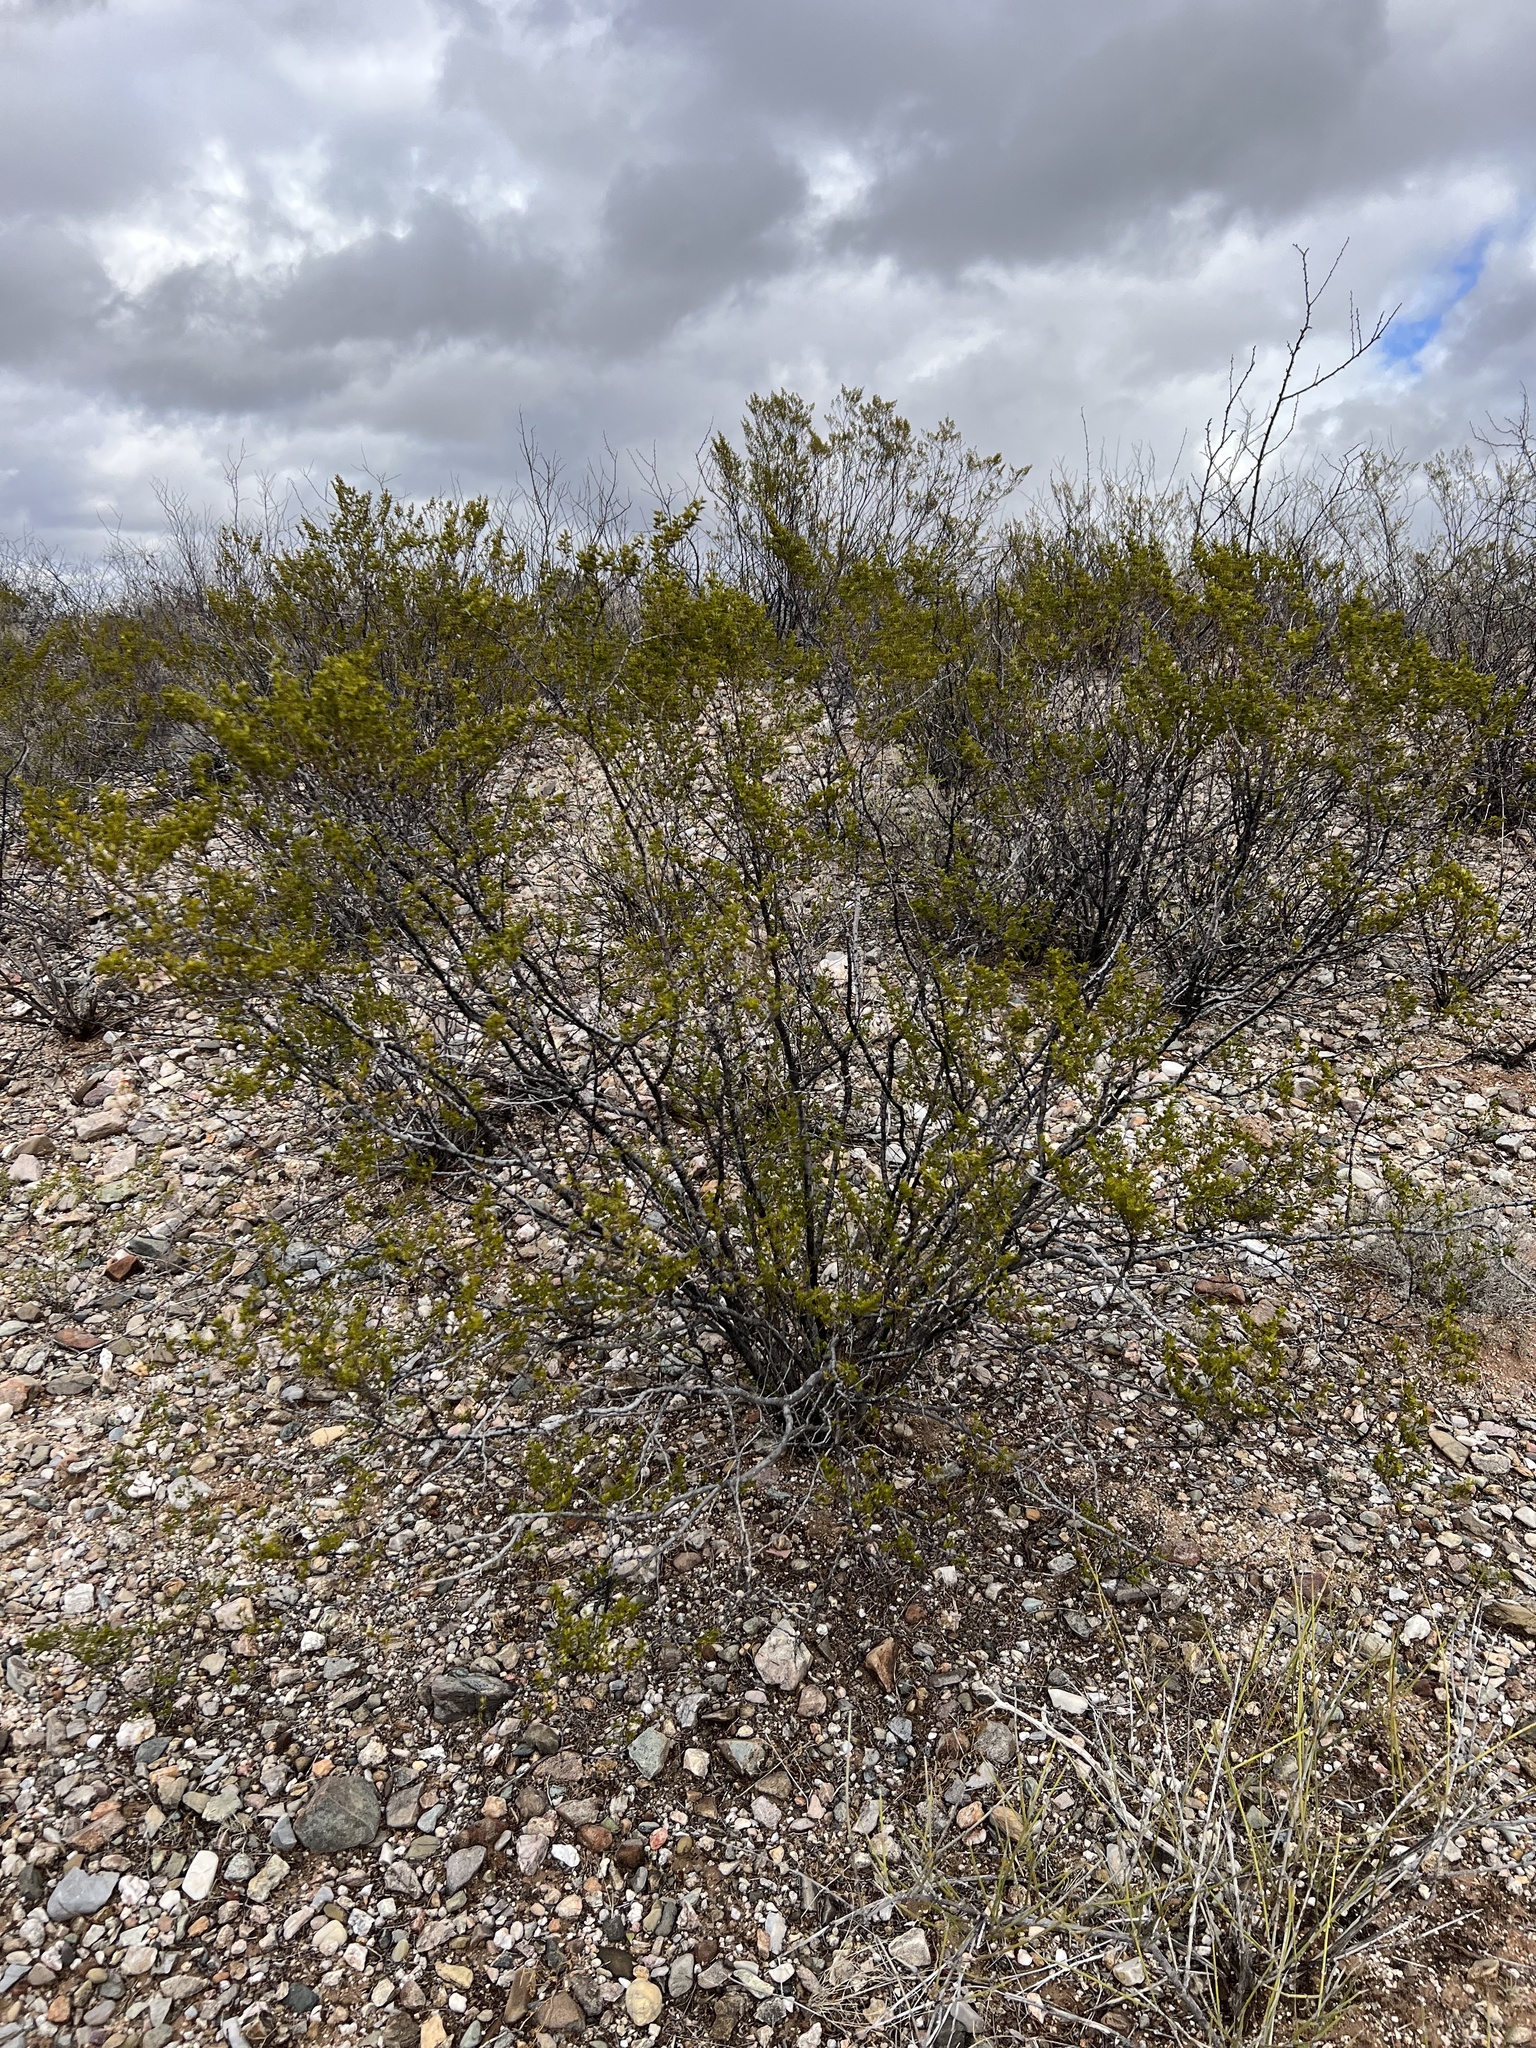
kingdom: Plantae
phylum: Tracheophyta
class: Magnoliopsida
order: Zygophyllales
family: Zygophyllaceae
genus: Larrea
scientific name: Larrea tridentata
